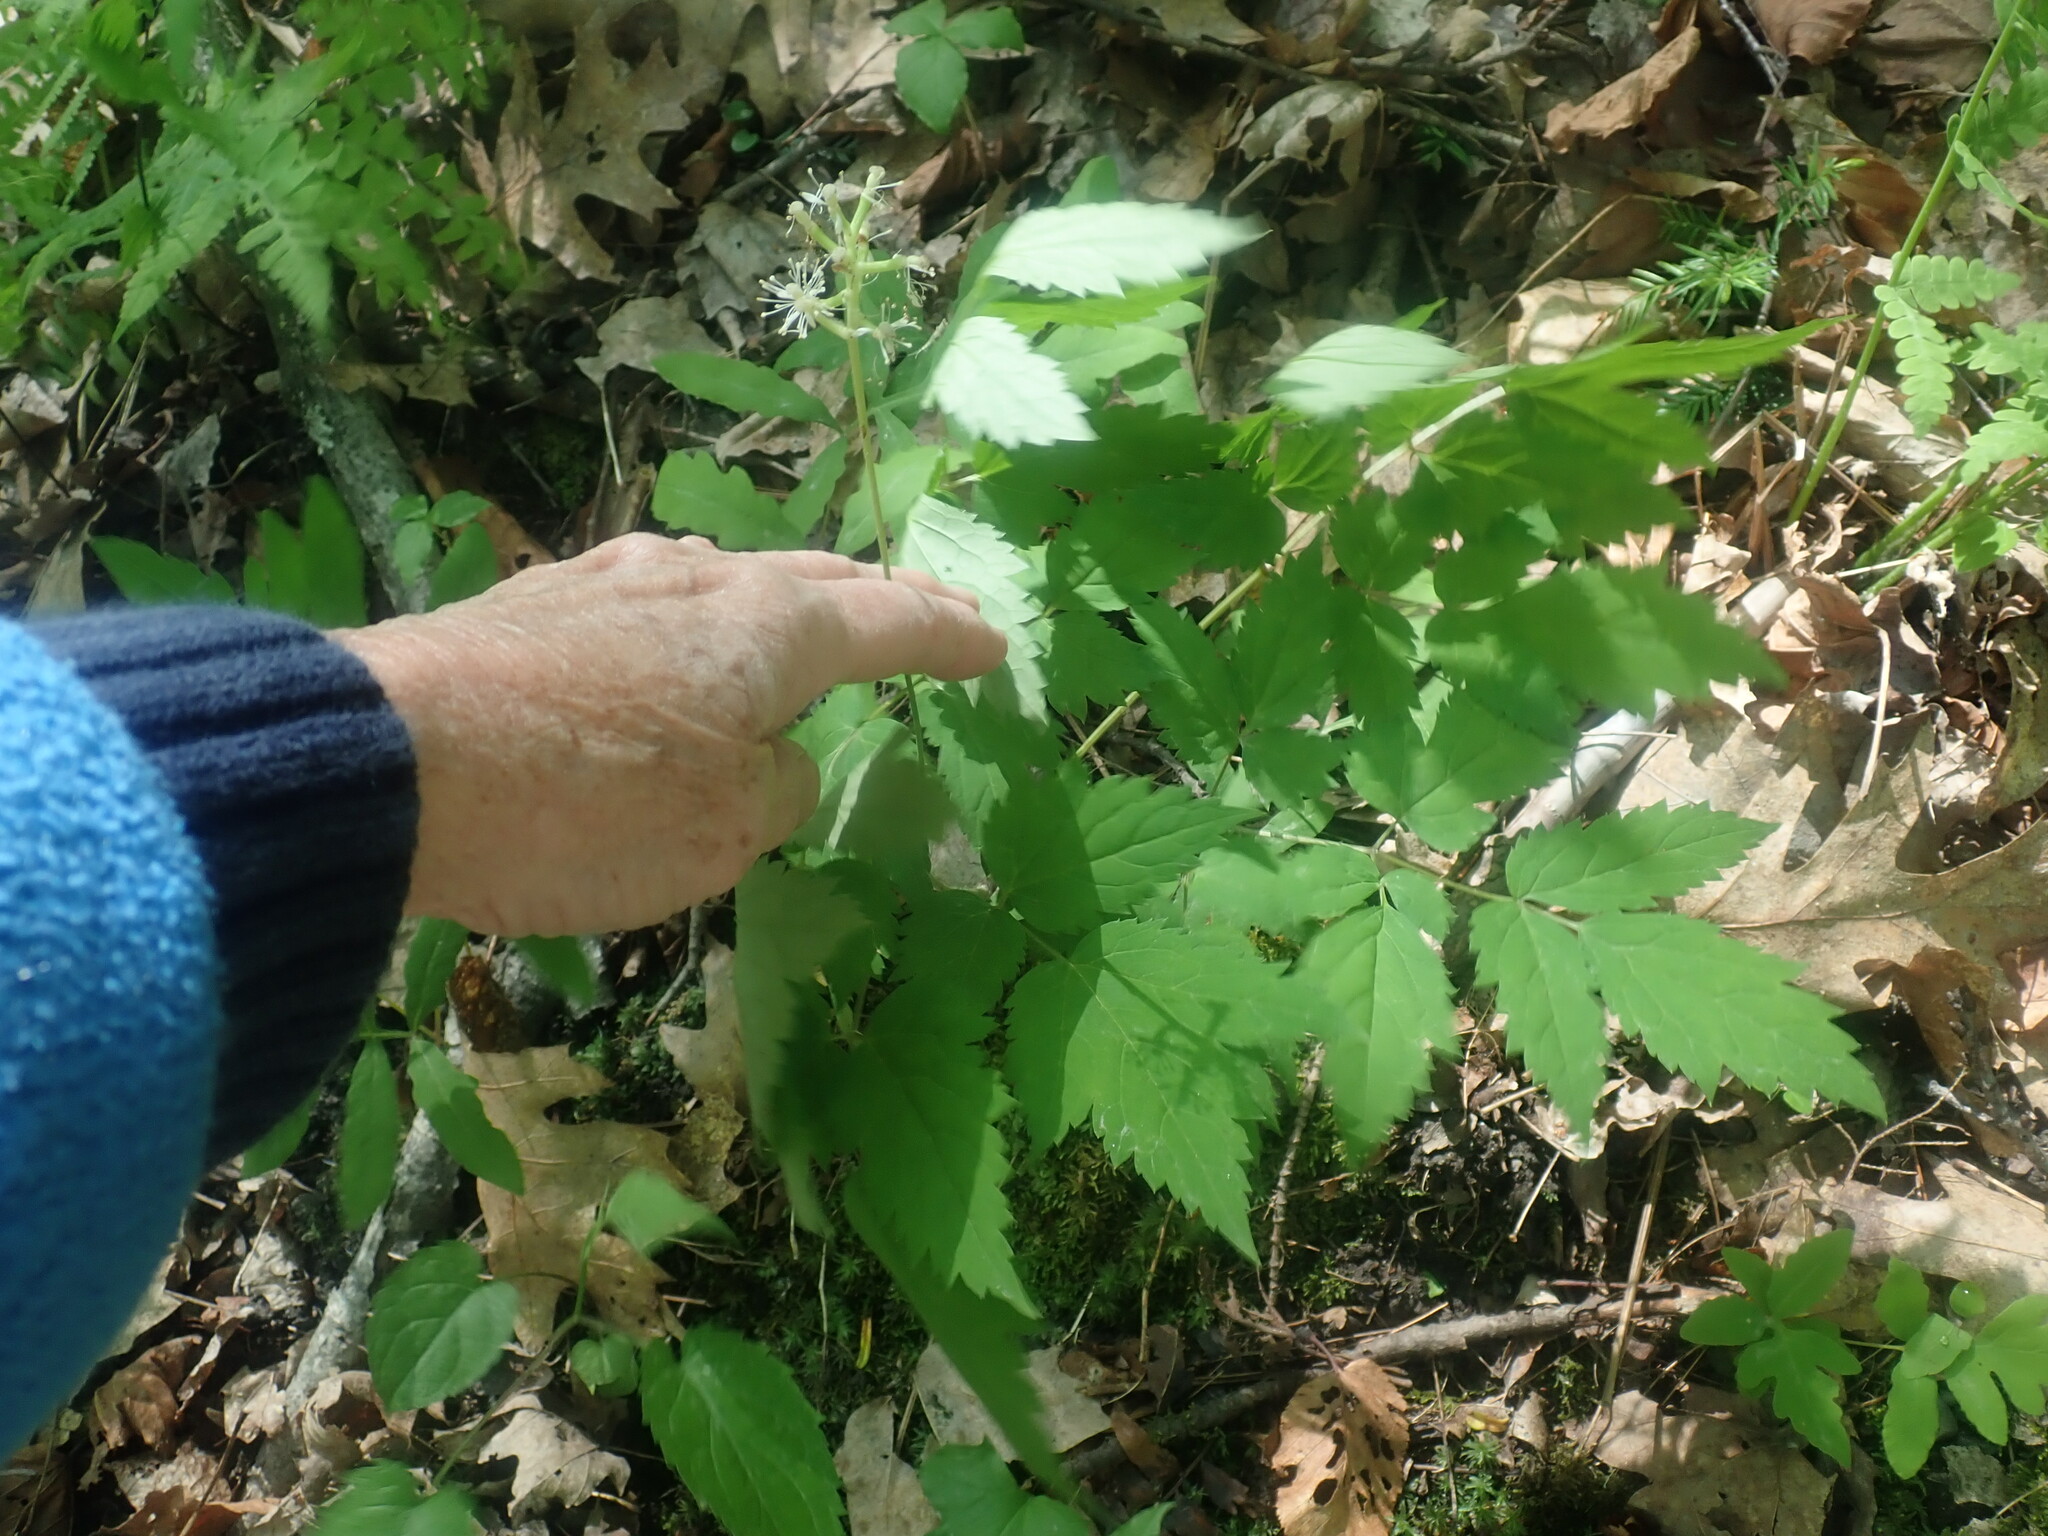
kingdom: Plantae
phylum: Tracheophyta
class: Magnoliopsida
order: Ranunculales
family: Ranunculaceae
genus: Actaea
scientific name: Actaea pachypoda
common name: Doll's-eyes
